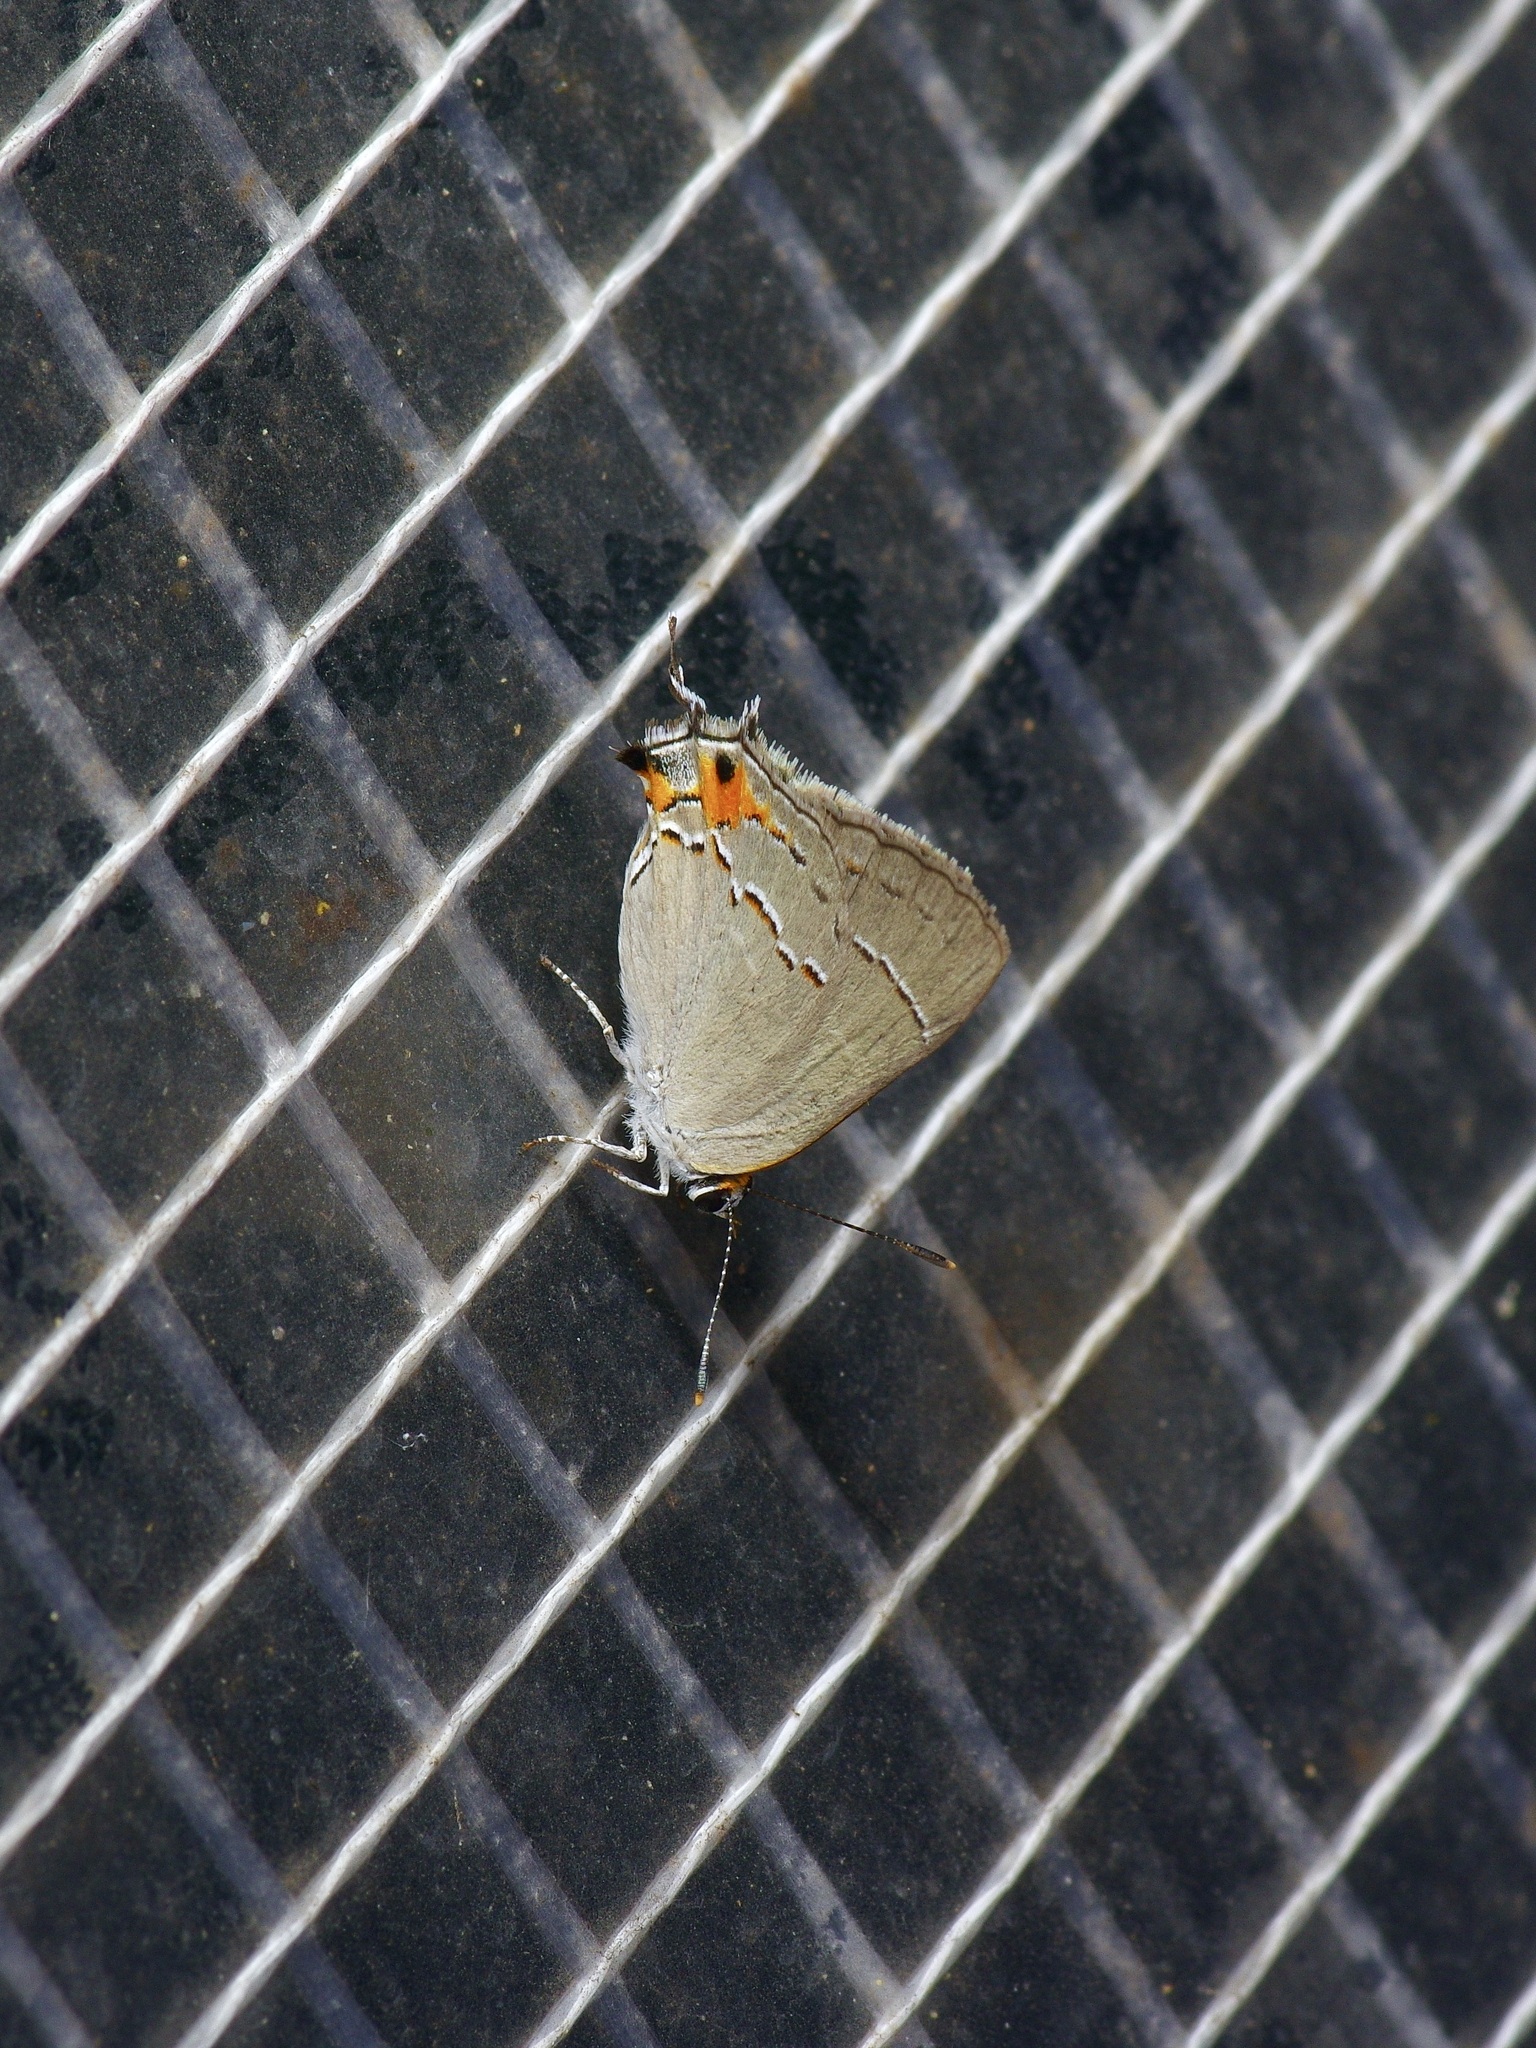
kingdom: Animalia
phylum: Arthropoda
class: Insecta
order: Lepidoptera
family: Lycaenidae
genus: Strymon
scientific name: Strymon melinus
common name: Gray hairstreak
